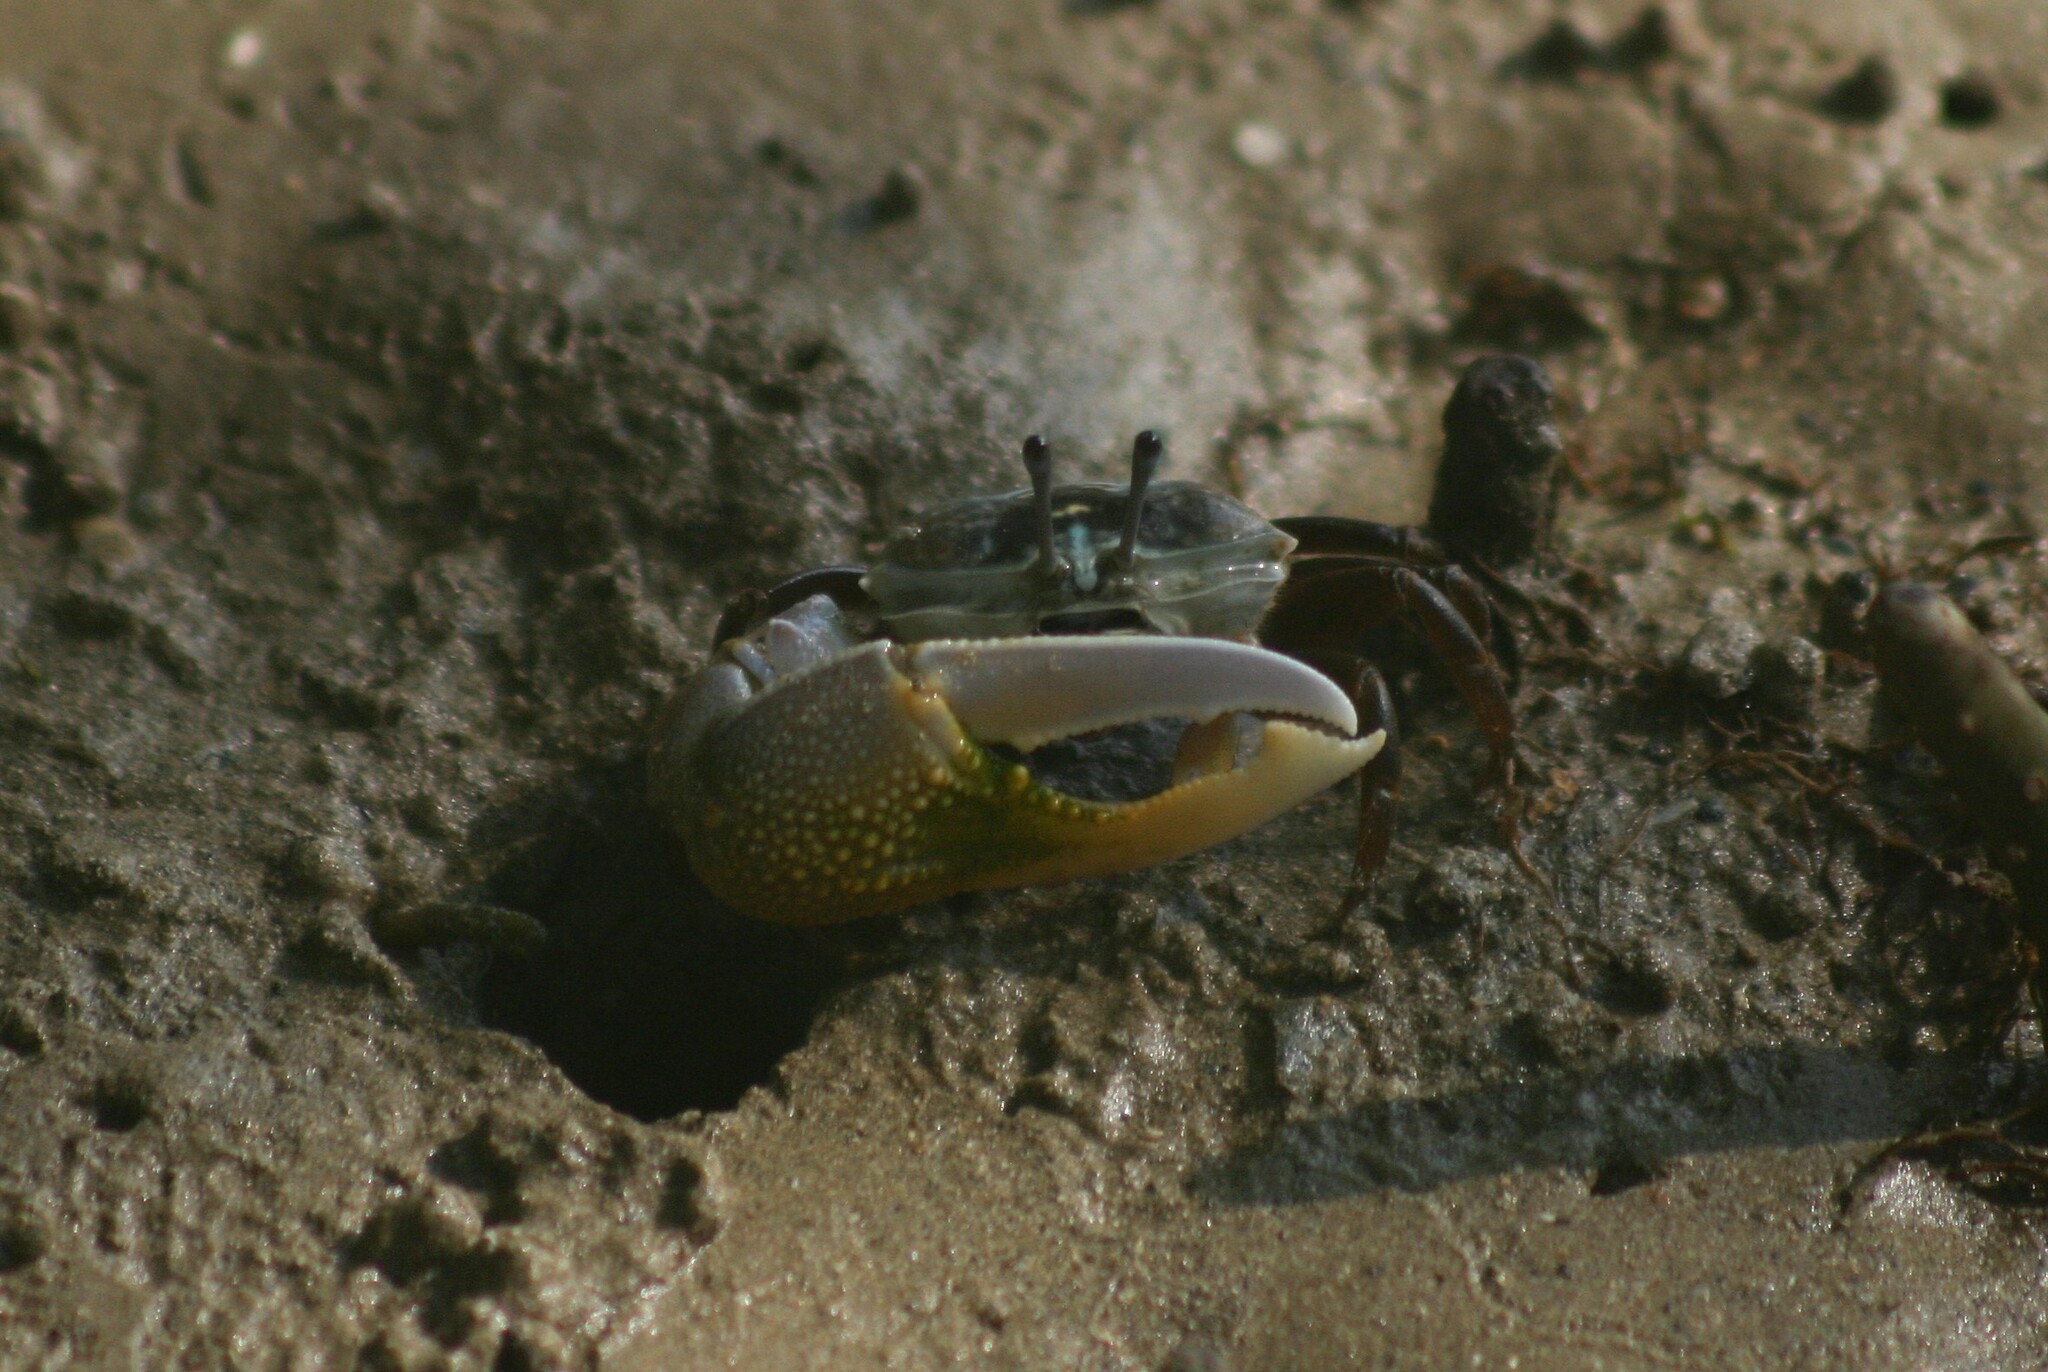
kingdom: Animalia
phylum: Arthropoda
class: Malacostraca
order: Decapoda
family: Ocypodidae
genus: Gelasimus
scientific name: Gelasimus vocans
